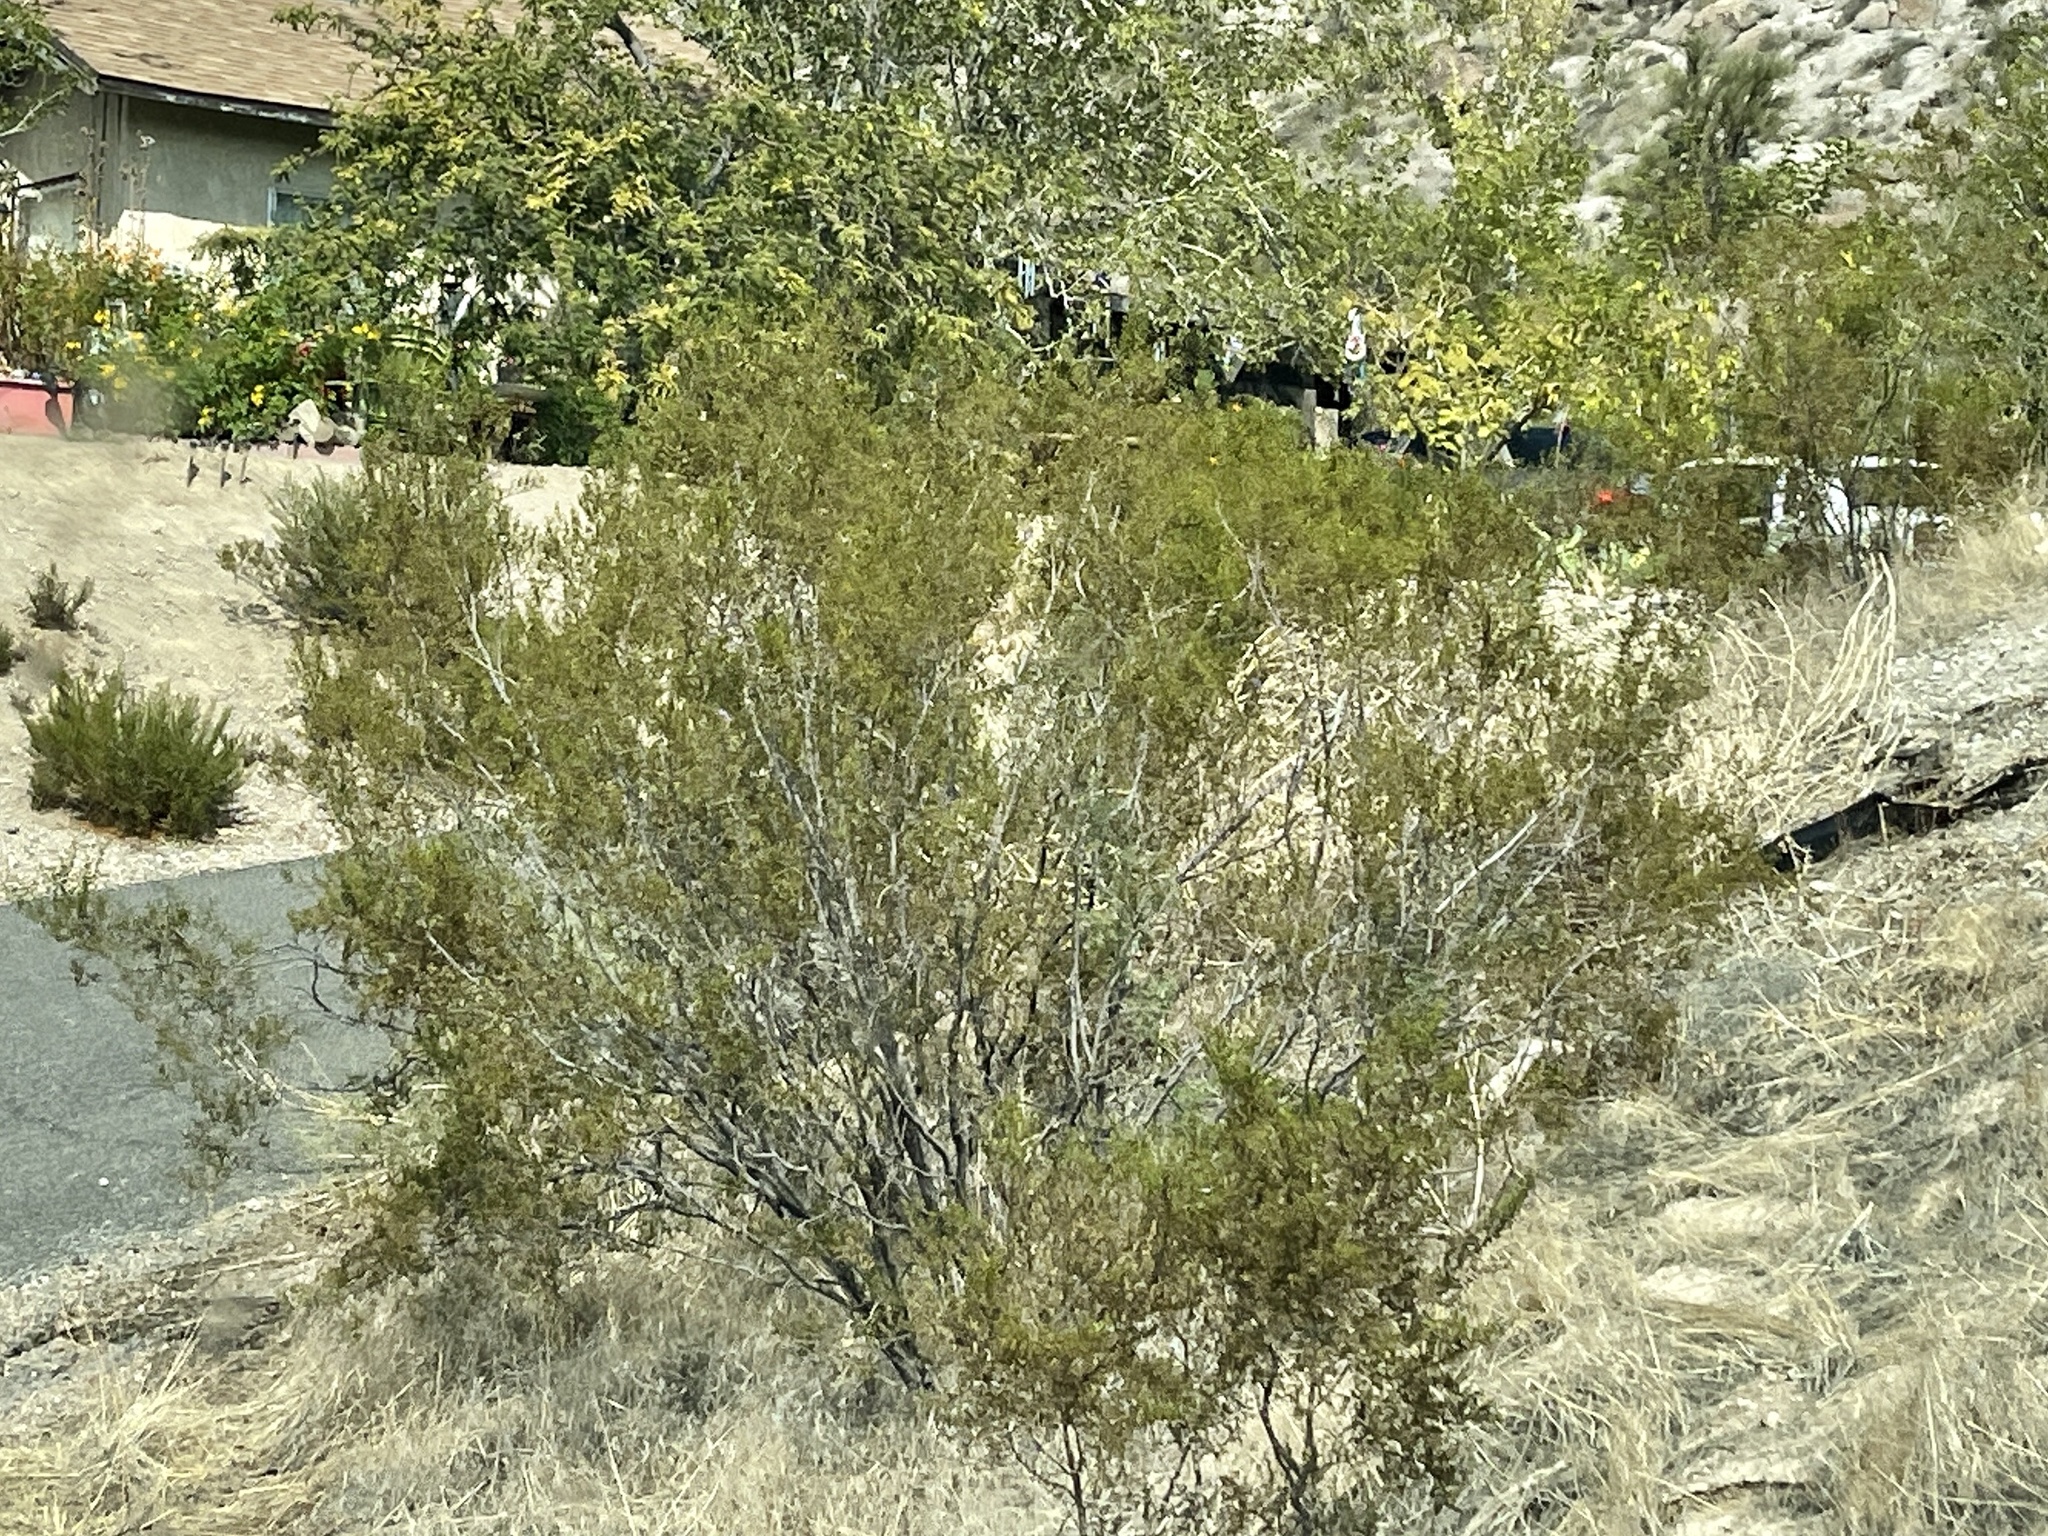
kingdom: Plantae
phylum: Tracheophyta
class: Magnoliopsida
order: Zygophyllales
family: Zygophyllaceae
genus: Larrea
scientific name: Larrea tridentata
